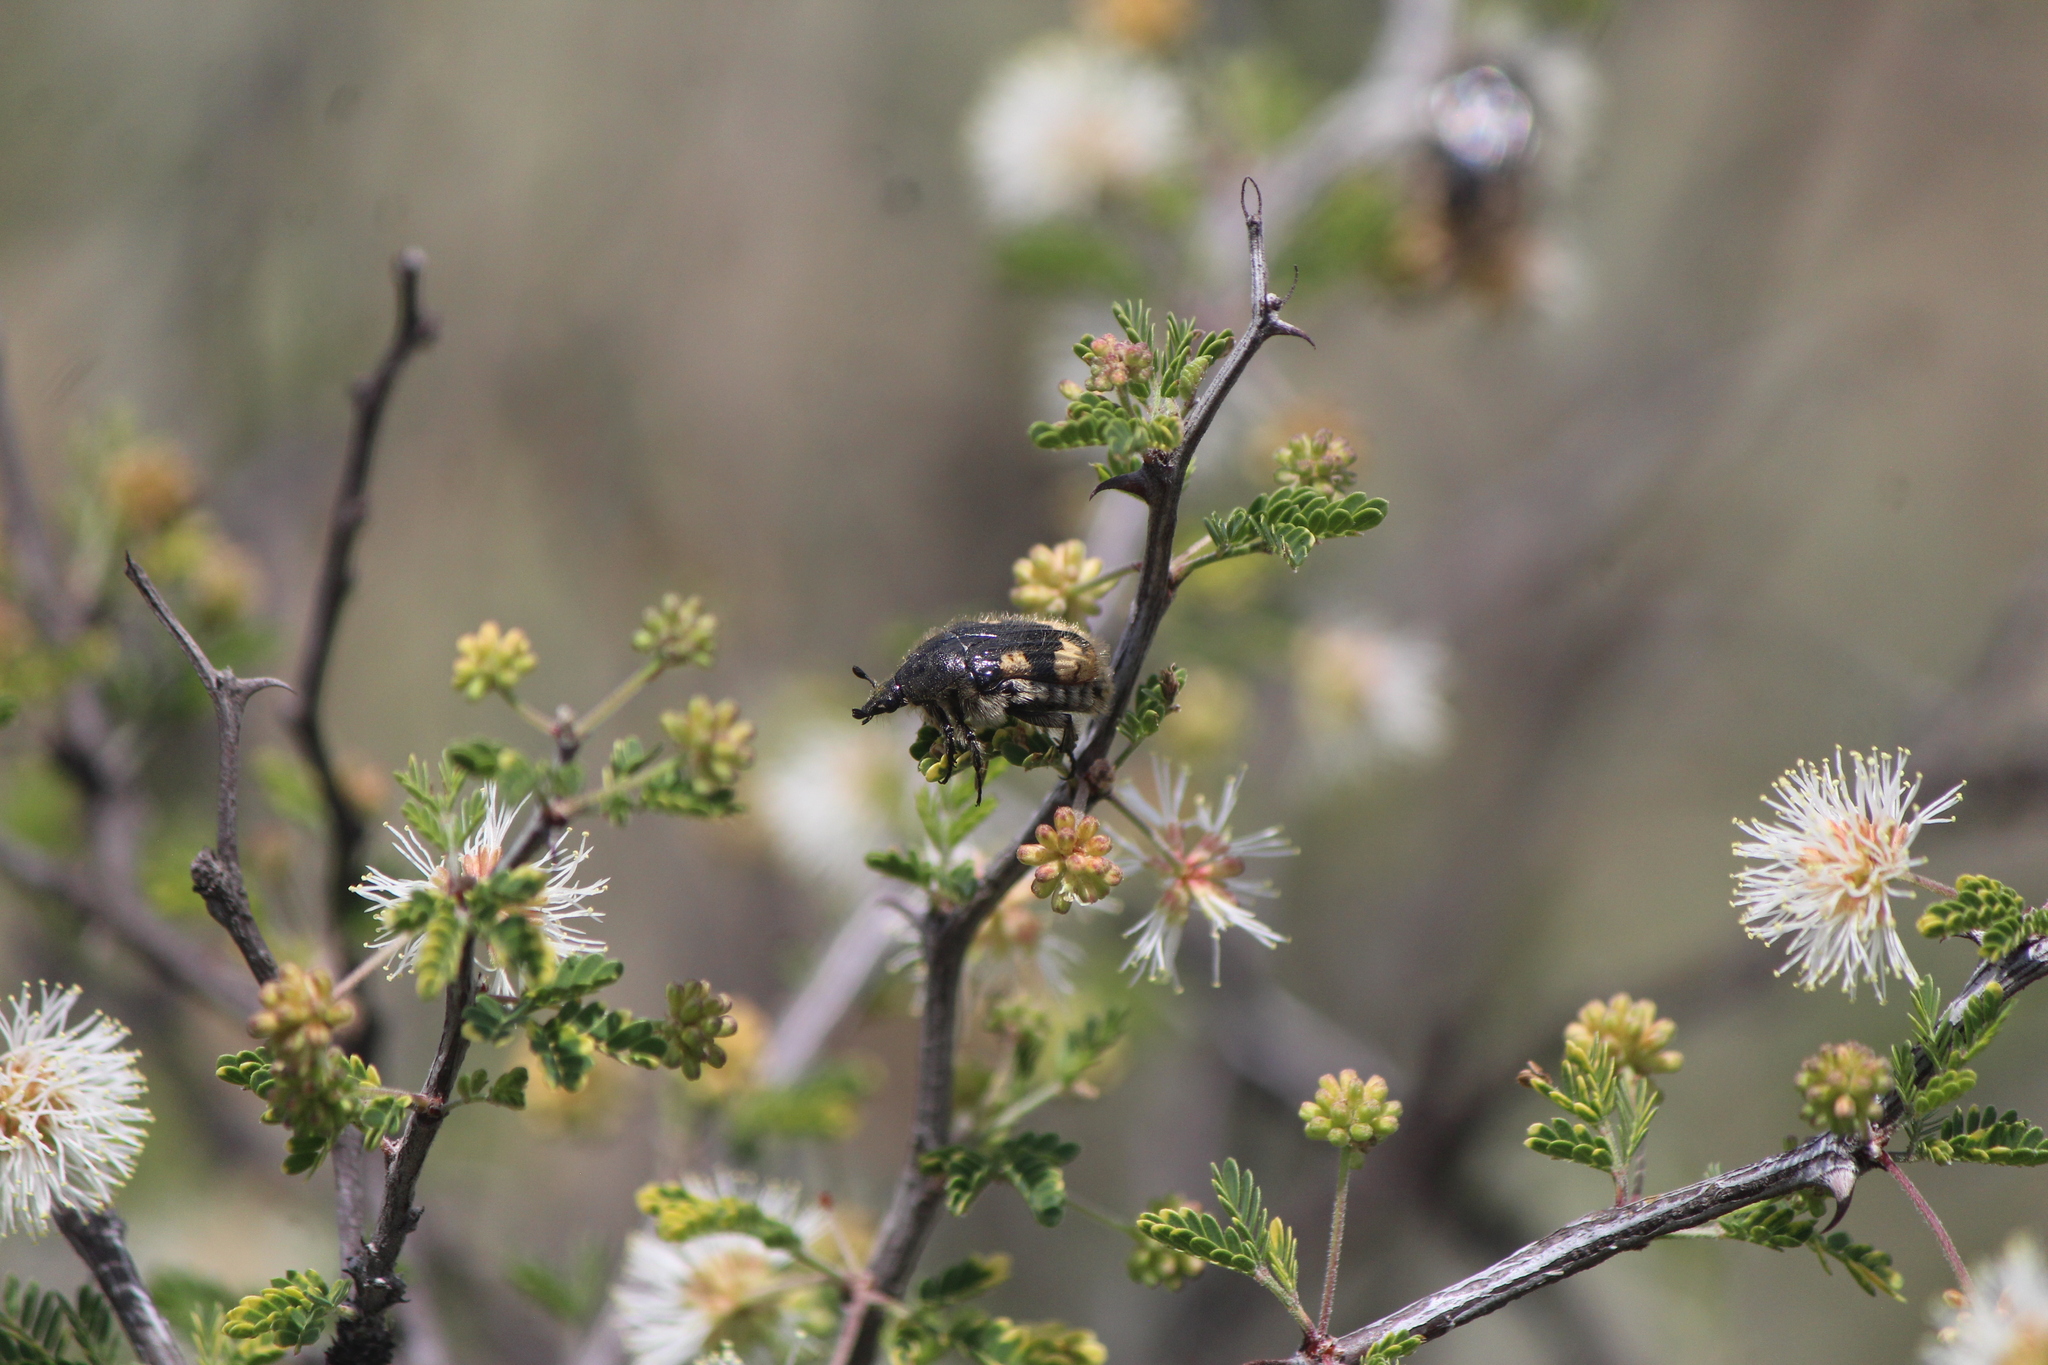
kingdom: Animalia
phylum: Arthropoda
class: Insecta
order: Coleoptera
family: Scarabaeidae
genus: Euphoria
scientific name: Euphoria basalis
